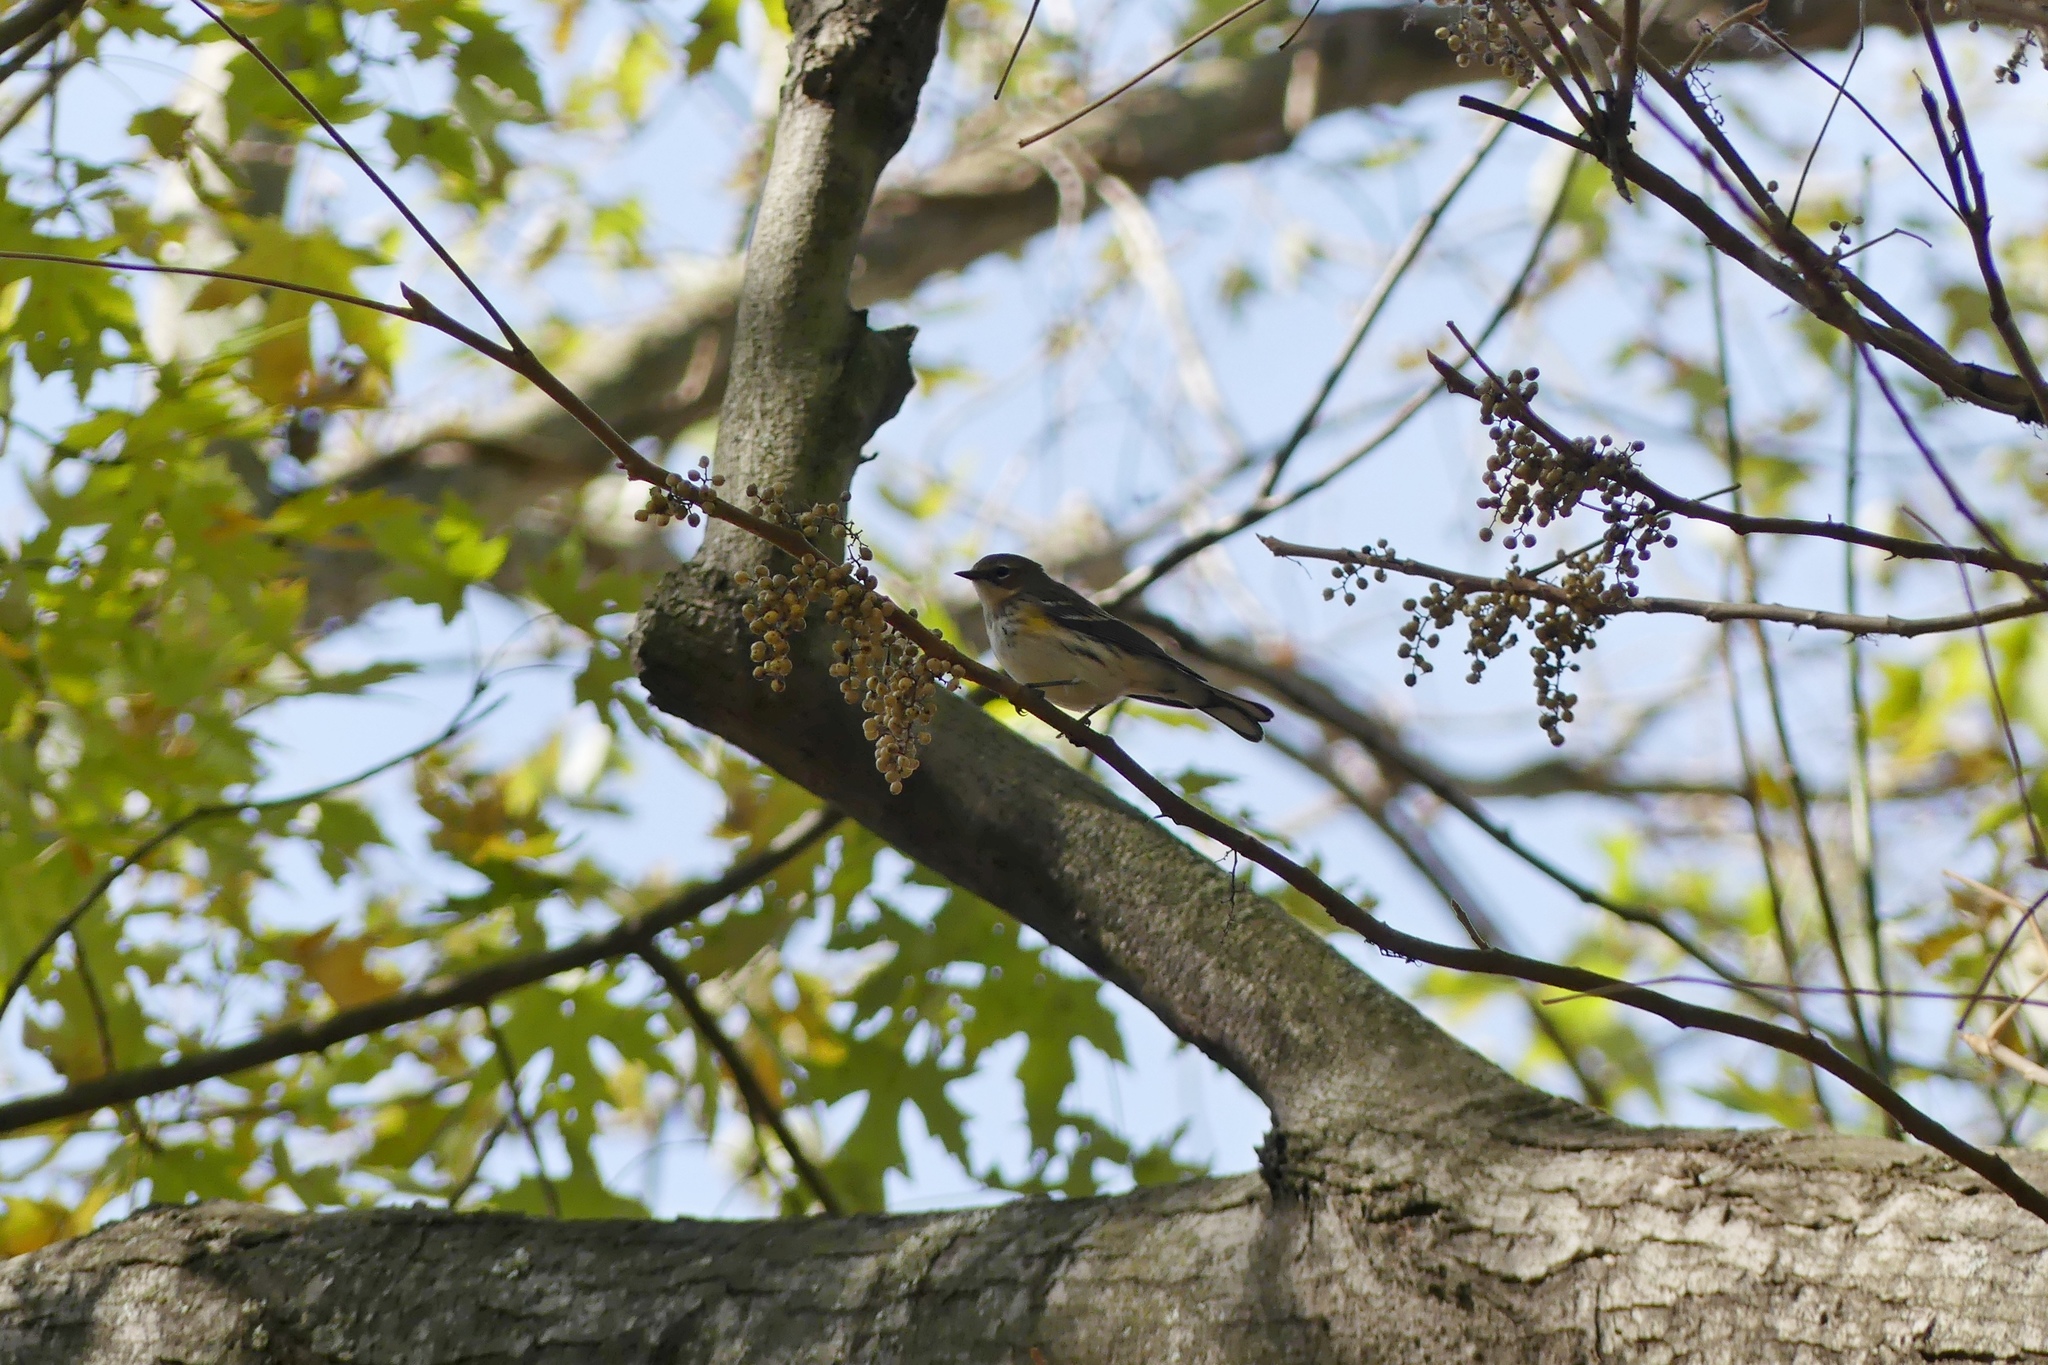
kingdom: Animalia
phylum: Chordata
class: Aves
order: Passeriformes
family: Parulidae
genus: Setophaga
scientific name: Setophaga coronata
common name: Myrtle warbler
